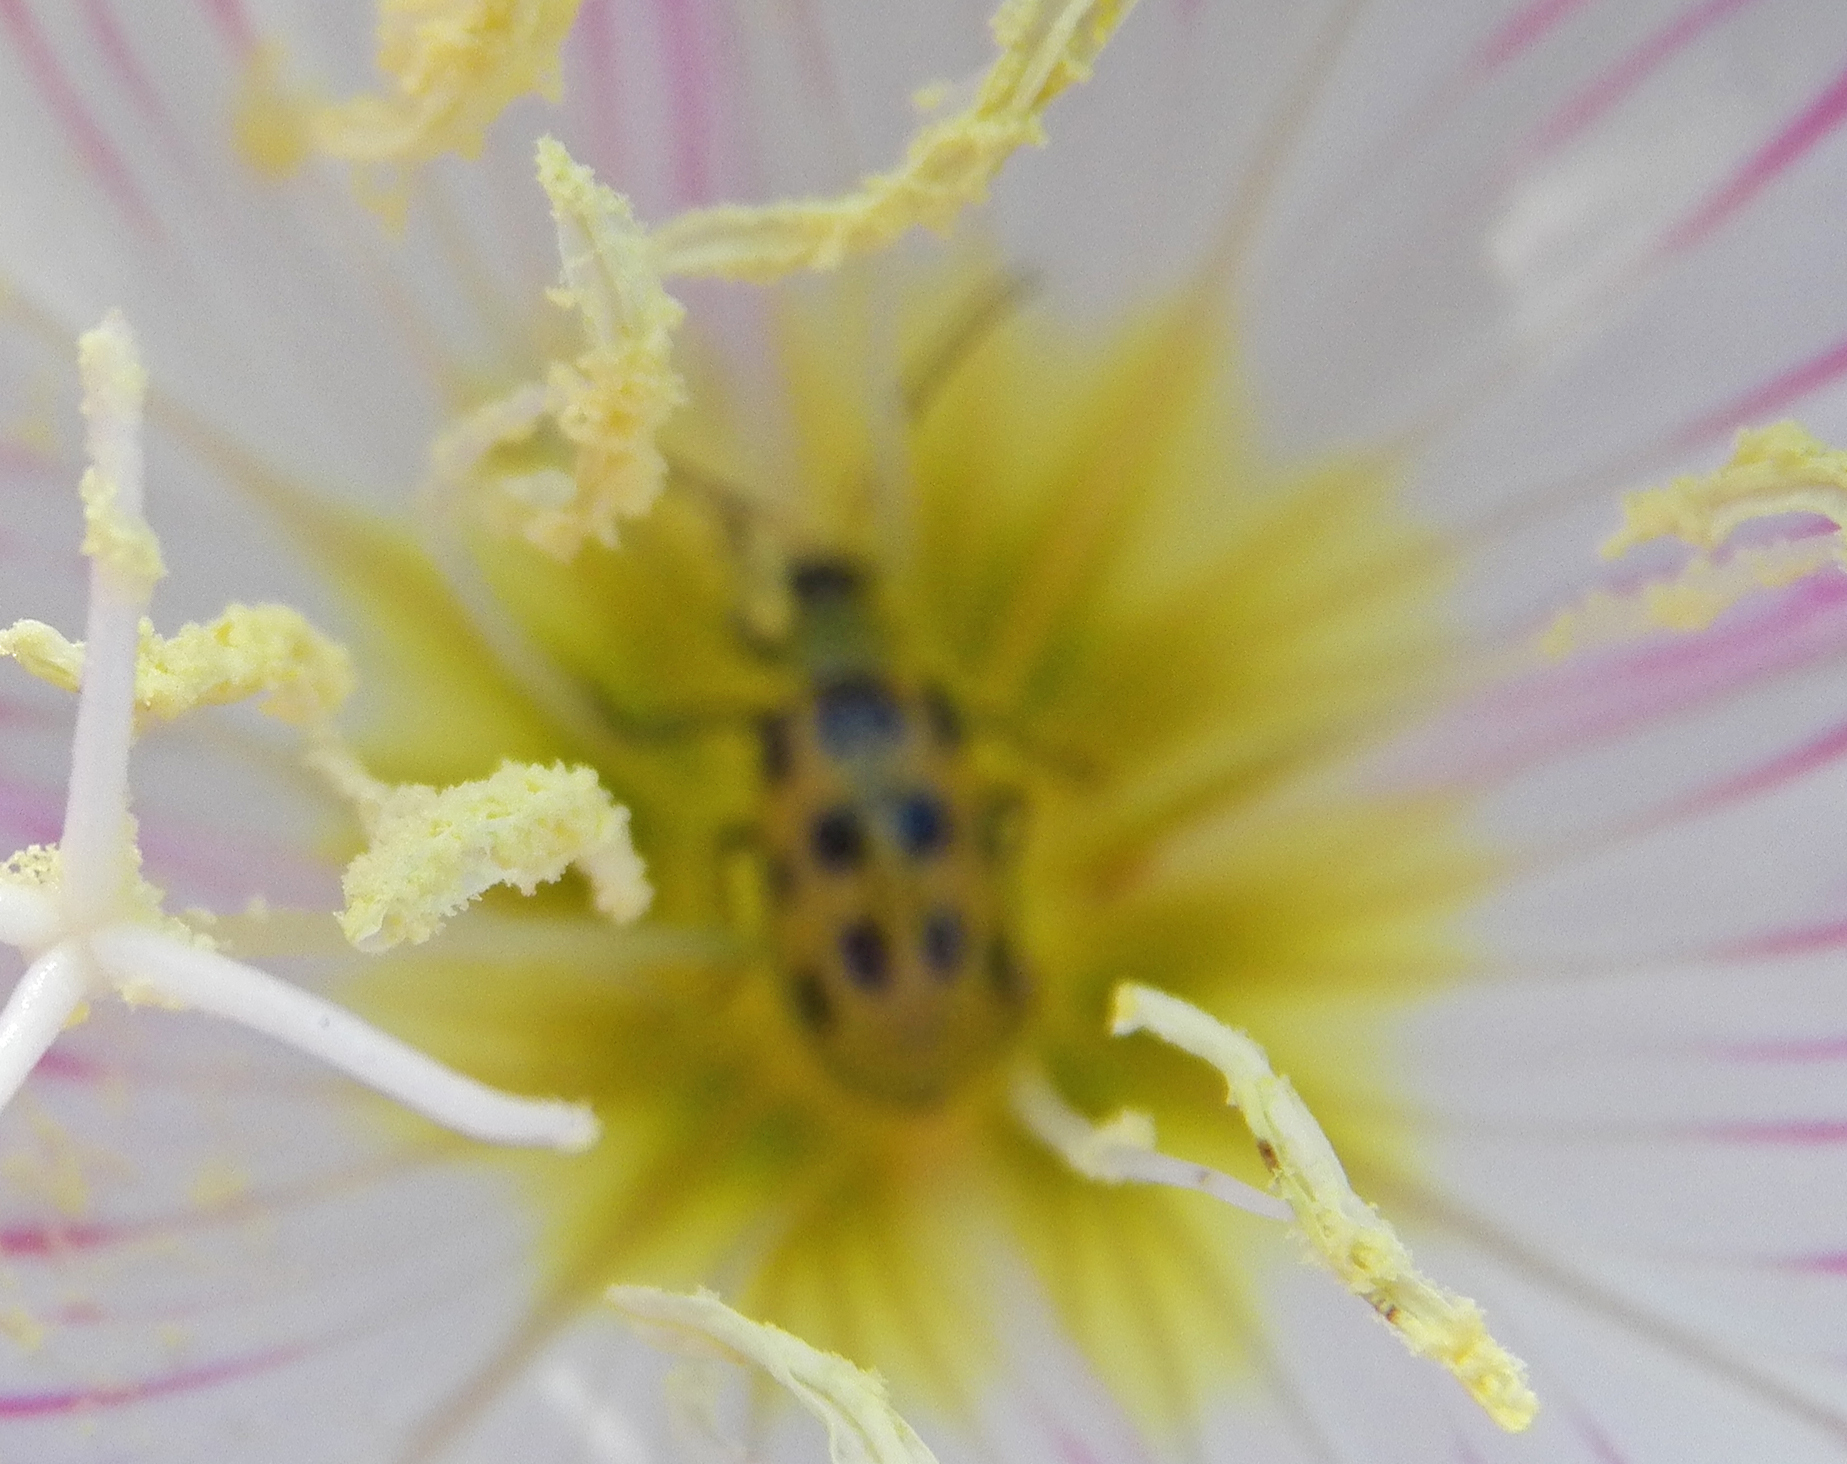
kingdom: Animalia
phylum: Arthropoda
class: Insecta
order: Coleoptera
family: Chrysomelidae
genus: Diabrotica
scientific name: Diabrotica undecimpunctata
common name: Spotted cucumber beetle
